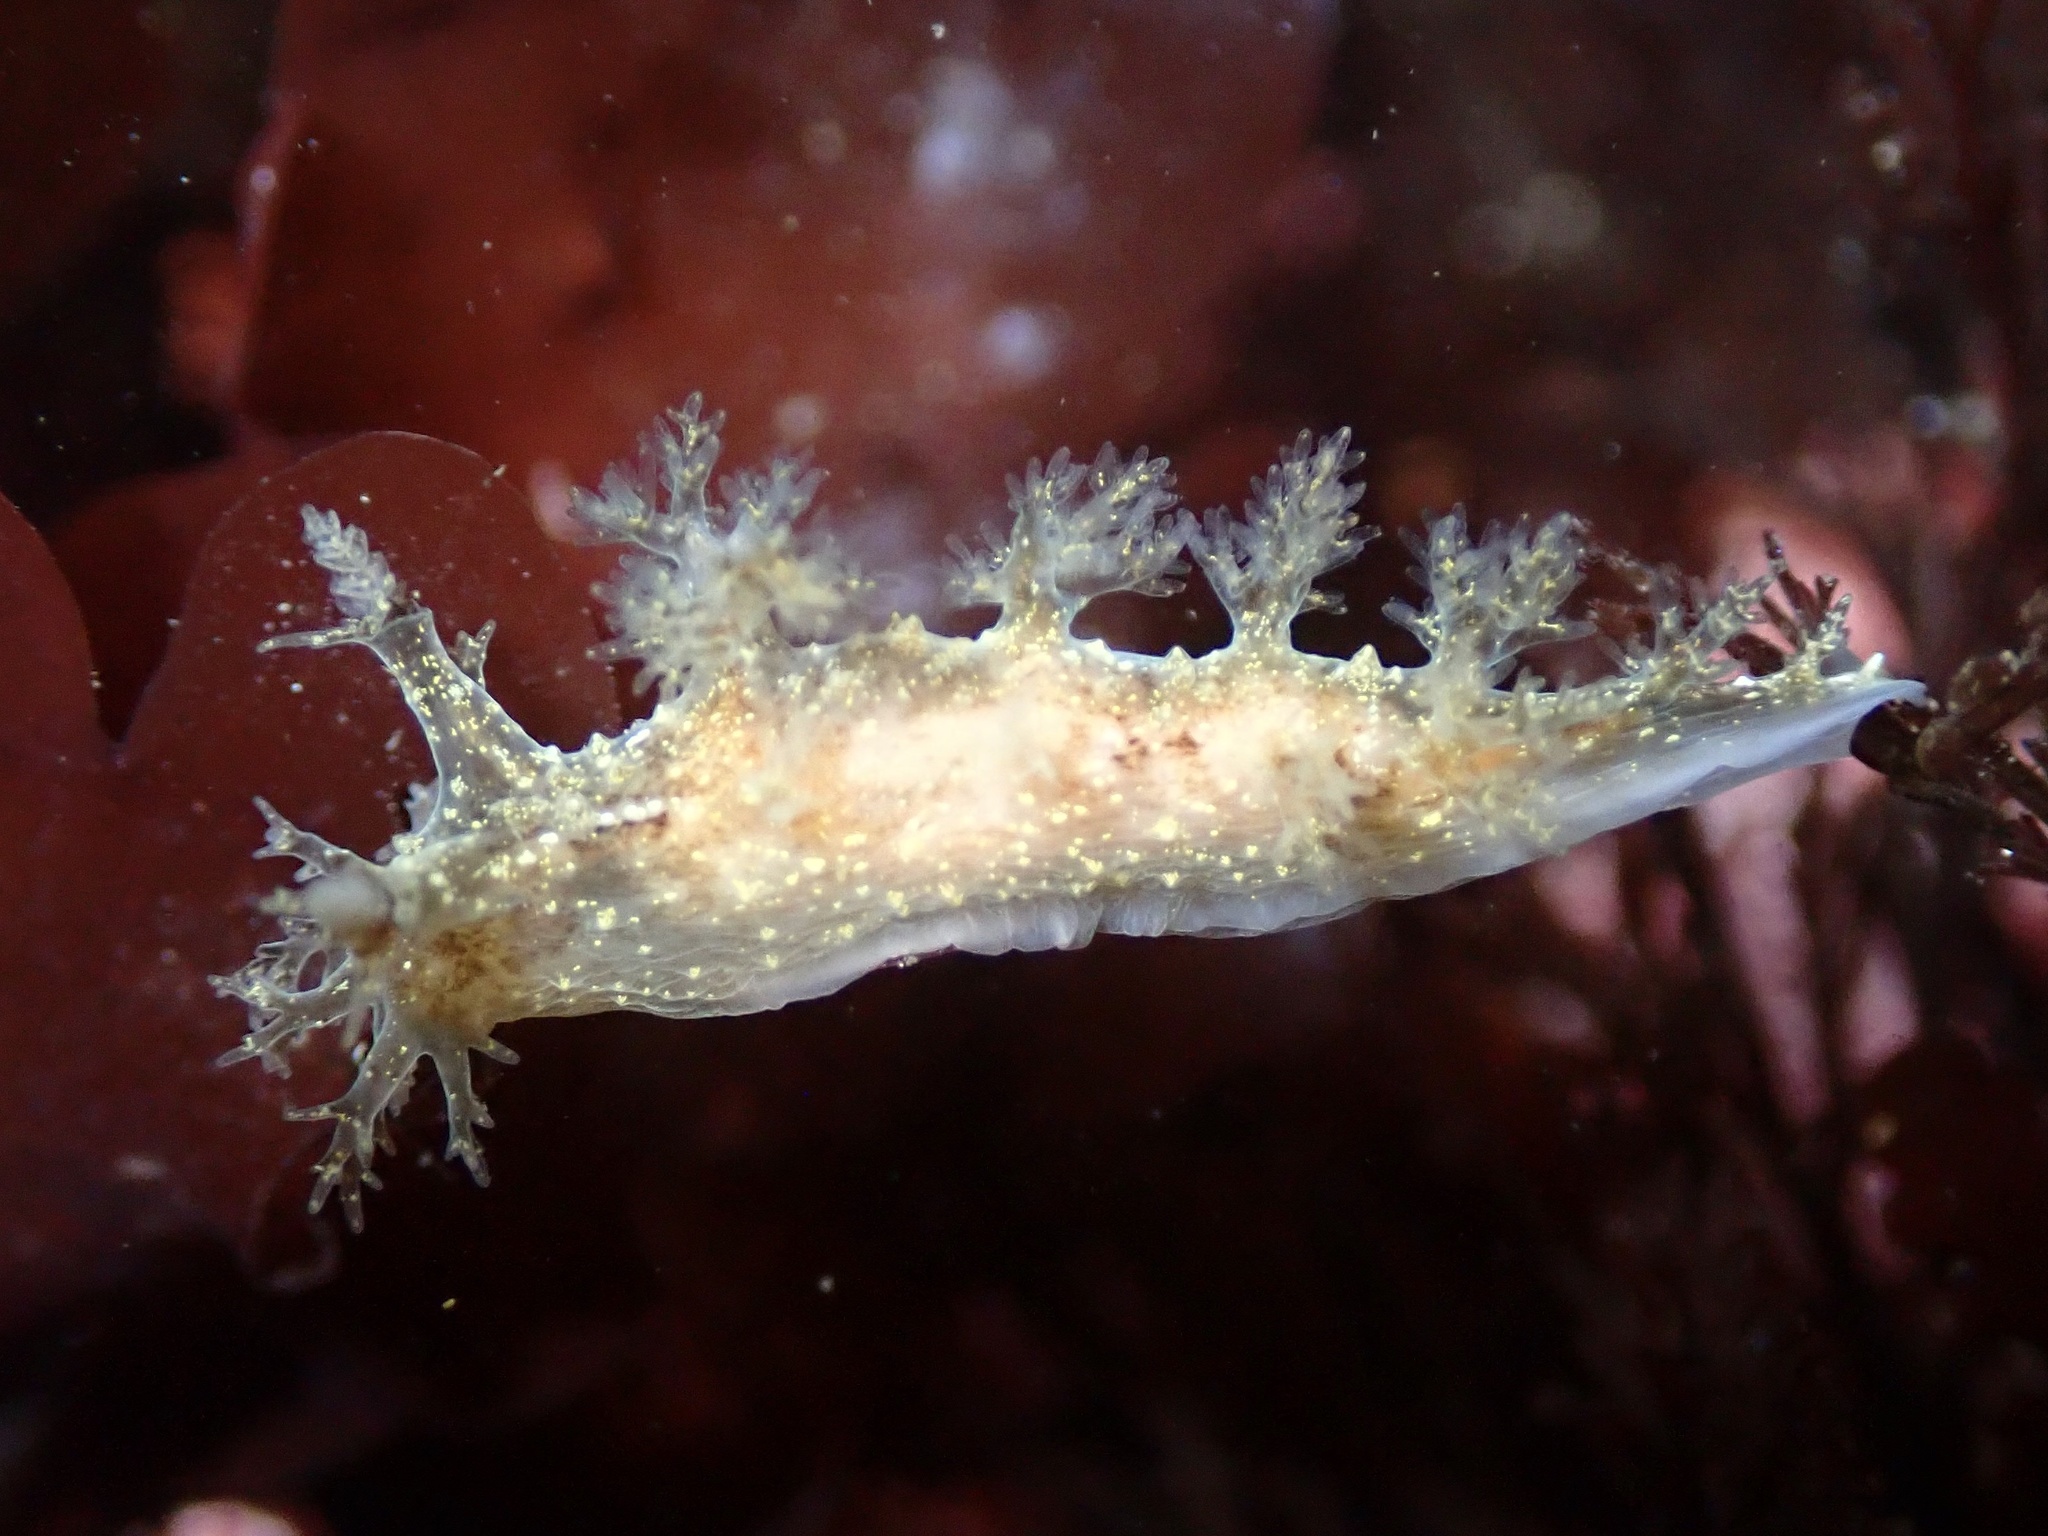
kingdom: Animalia
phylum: Mollusca
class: Gastropoda
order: Nudibranchia
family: Dendronotidae
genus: Dendronotus
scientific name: Dendronotus subramosus
